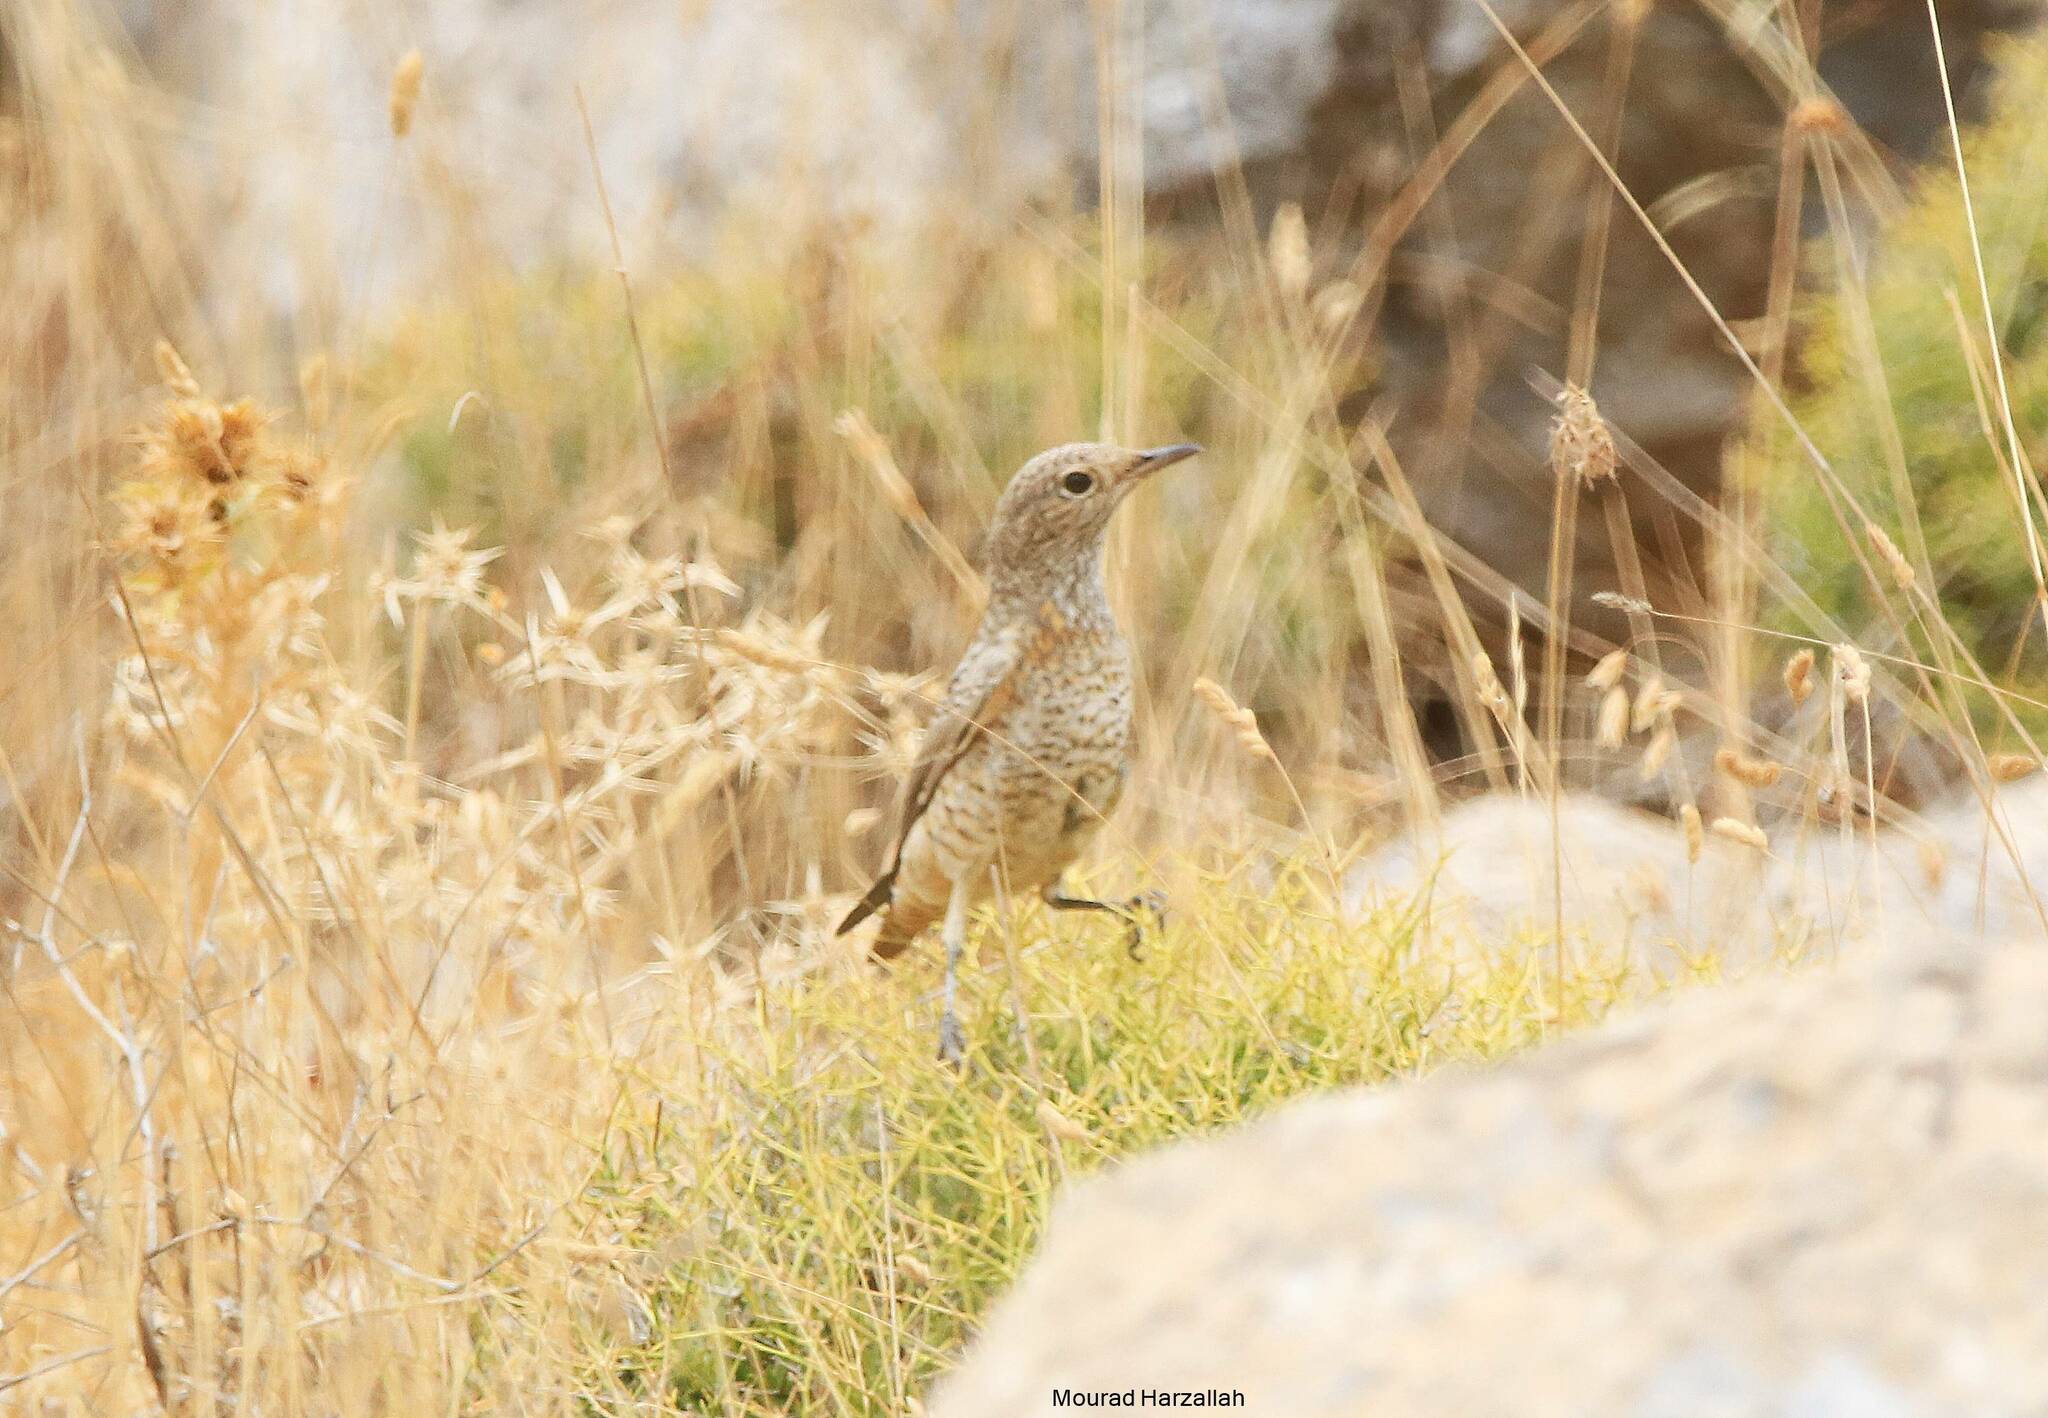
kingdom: Animalia
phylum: Chordata
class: Aves
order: Passeriformes
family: Muscicapidae
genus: Monticola
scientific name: Monticola saxatilis
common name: Rufous-tailed rock thrush
